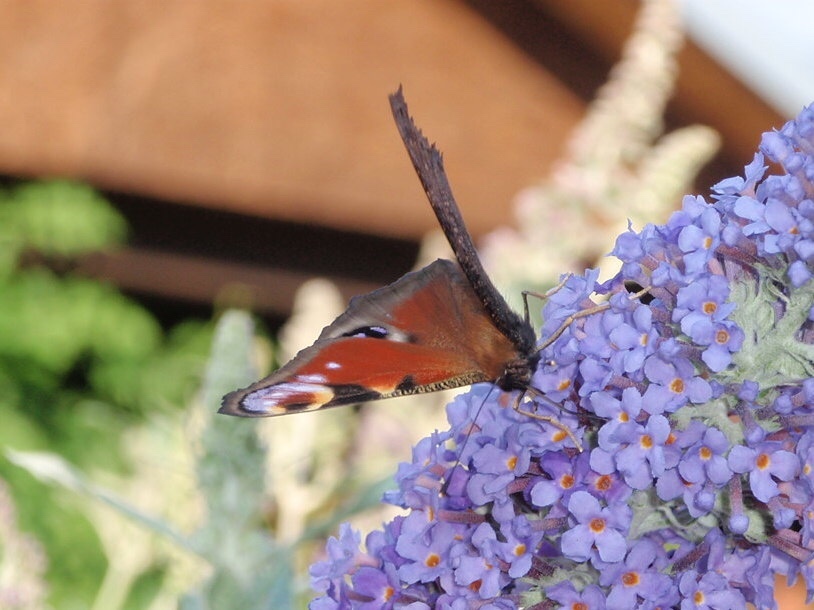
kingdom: Animalia
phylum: Arthropoda
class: Insecta
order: Lepidoptera
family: Nymphalidae
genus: Aglais
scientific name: Aglais io
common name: Peacock
